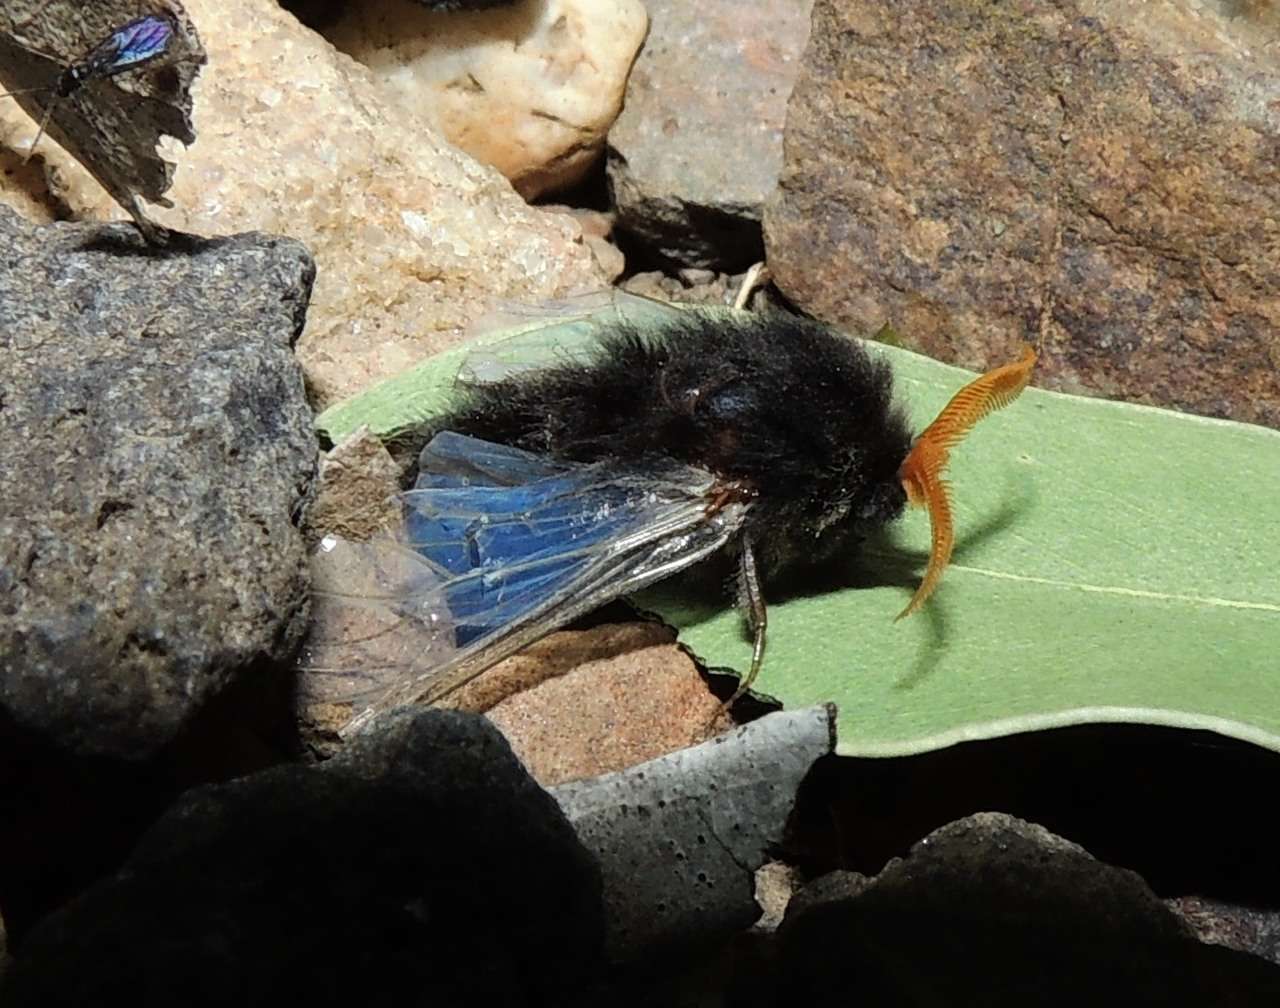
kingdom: Animalia
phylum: Arthropoda
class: Insecta
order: Lepidoptera
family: Psychidae
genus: Hyalarcta
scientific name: Hyalarcta huebneri
